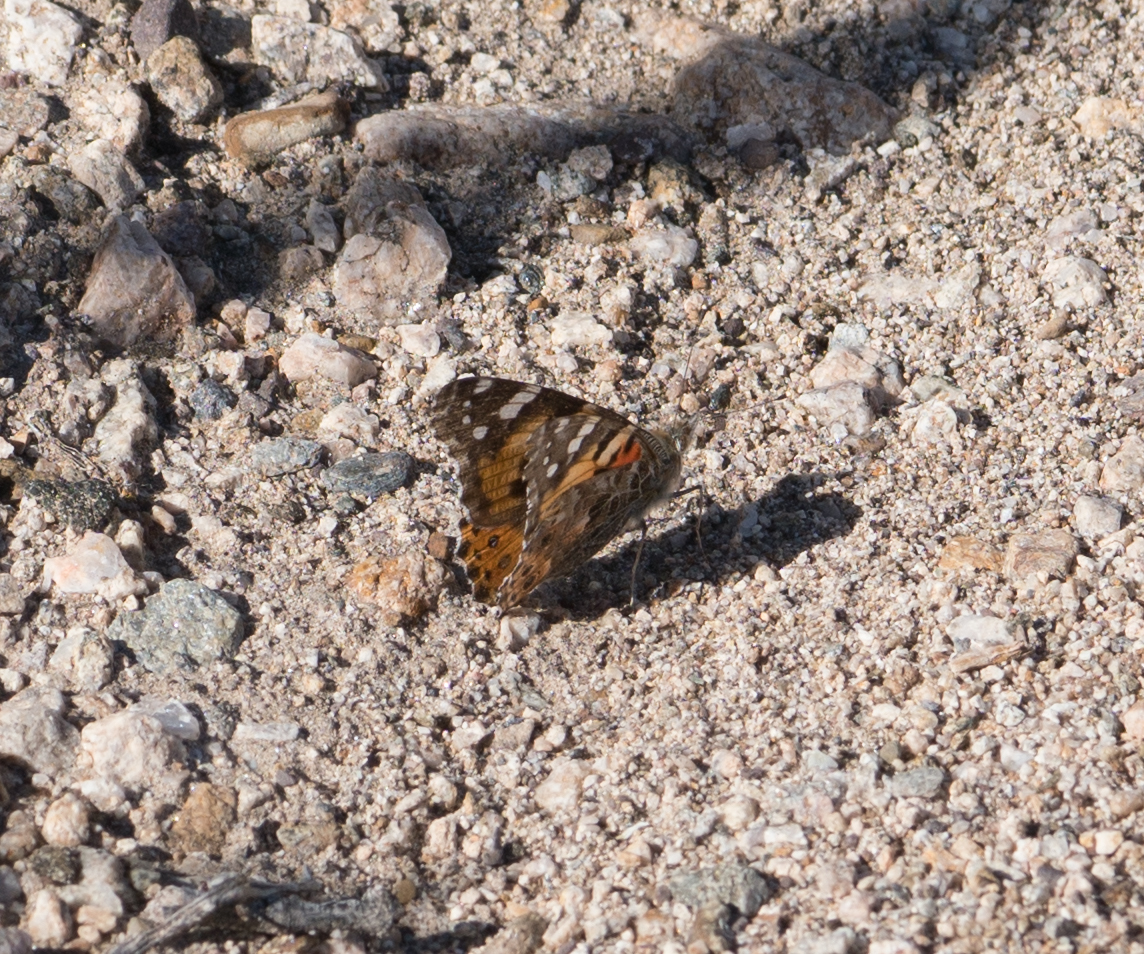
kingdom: Animalia
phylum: Arthropoda
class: Insecta
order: Lepidoptera
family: Nymphalidae
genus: Vanessa
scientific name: Vanessa cardui
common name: Painted lady
